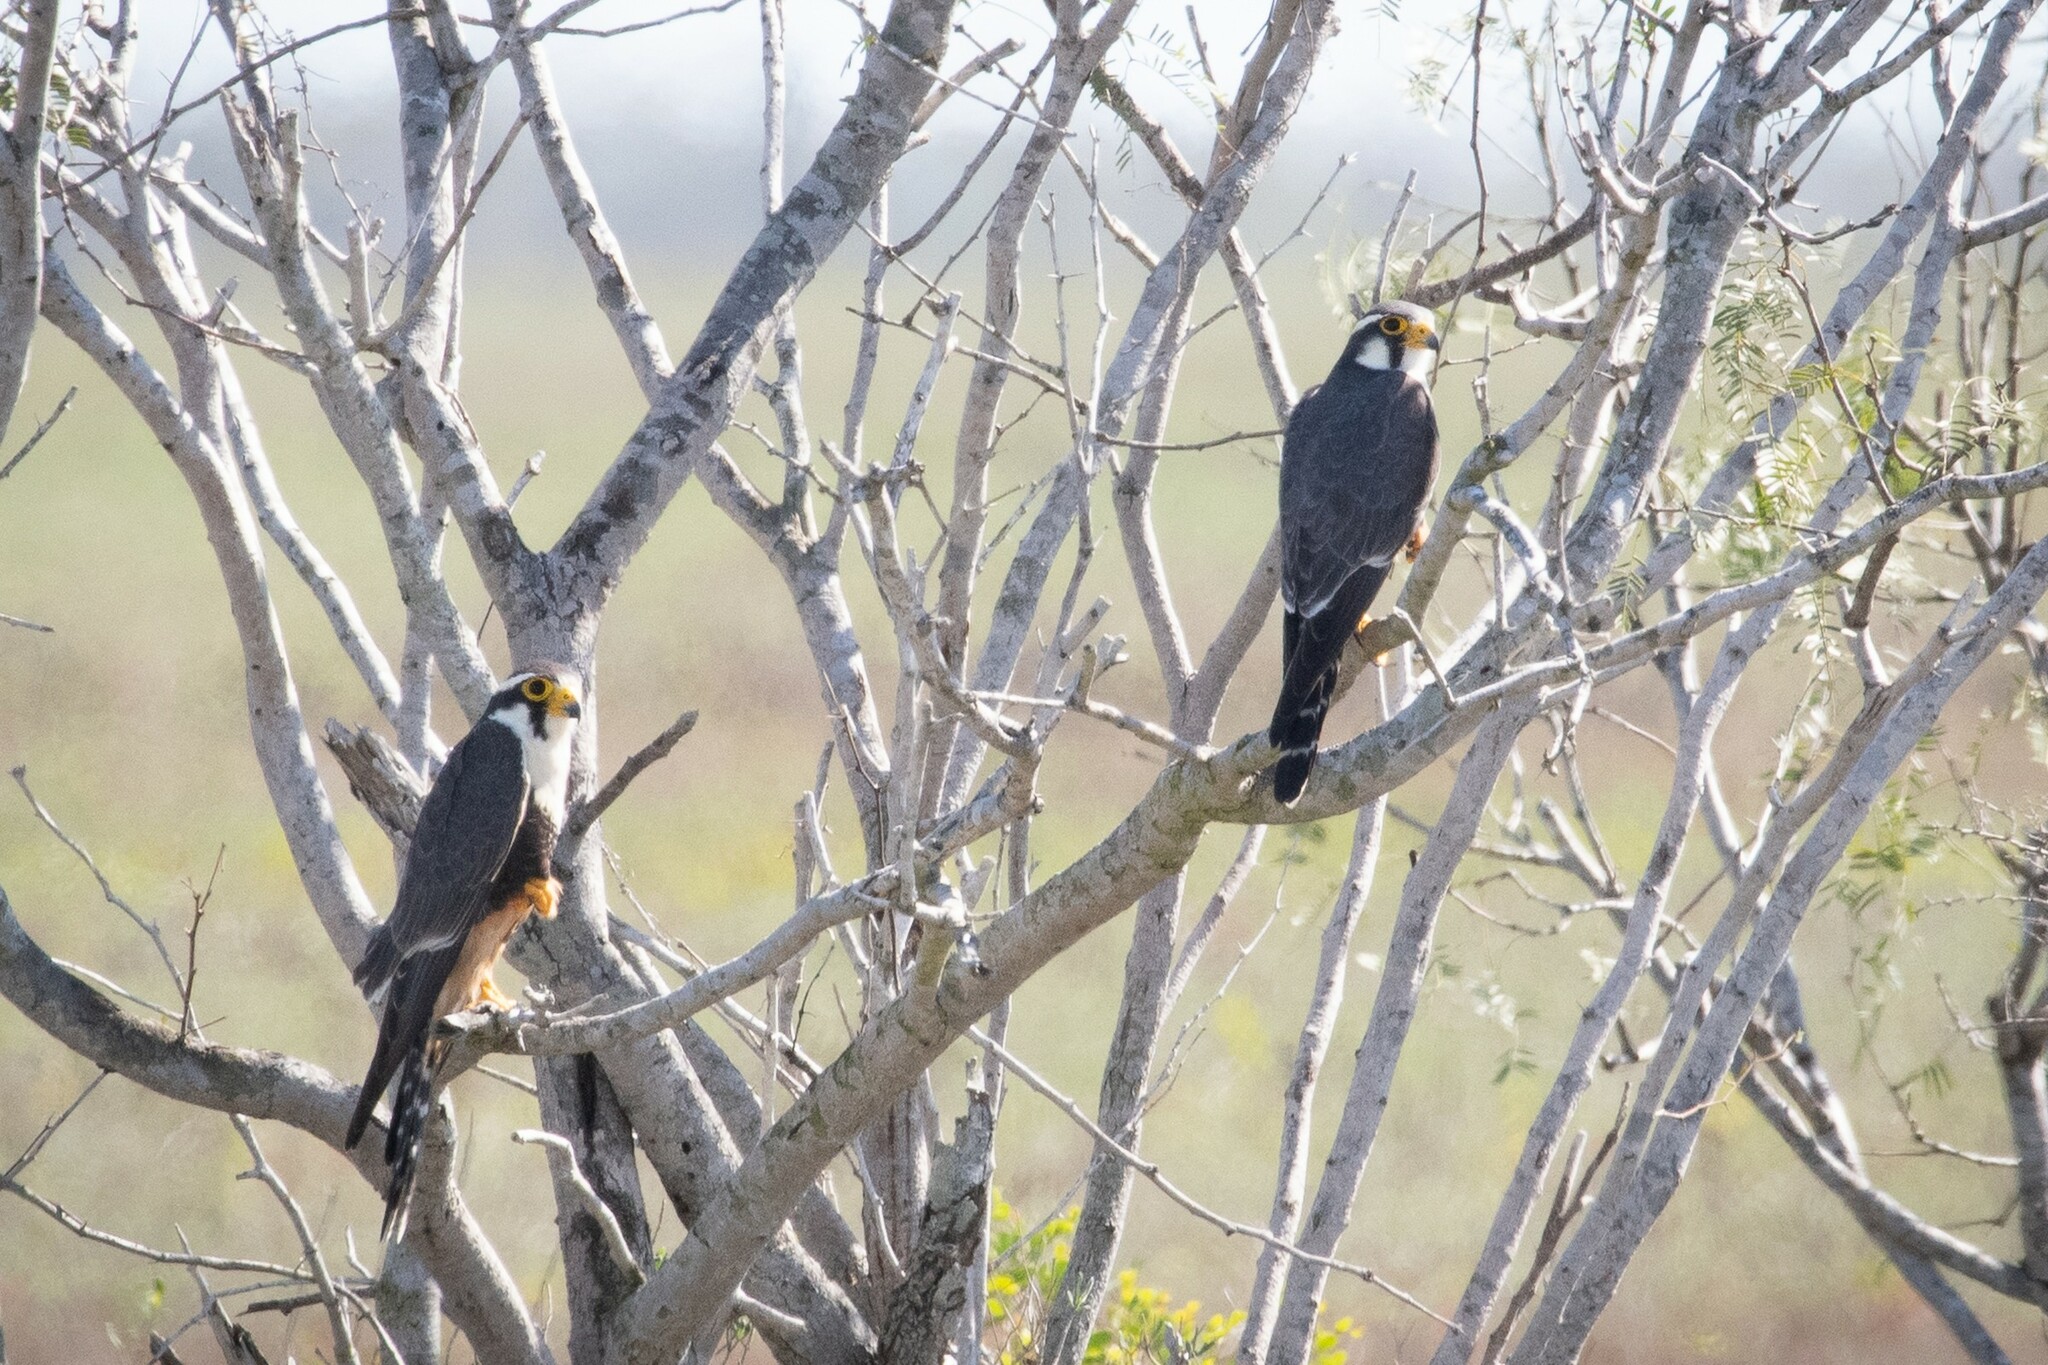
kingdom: Animalia
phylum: Chordata
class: Aves
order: Falconiformes
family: Falconidae
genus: Falco
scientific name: Falco femoralis
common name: Aplomado falcon
